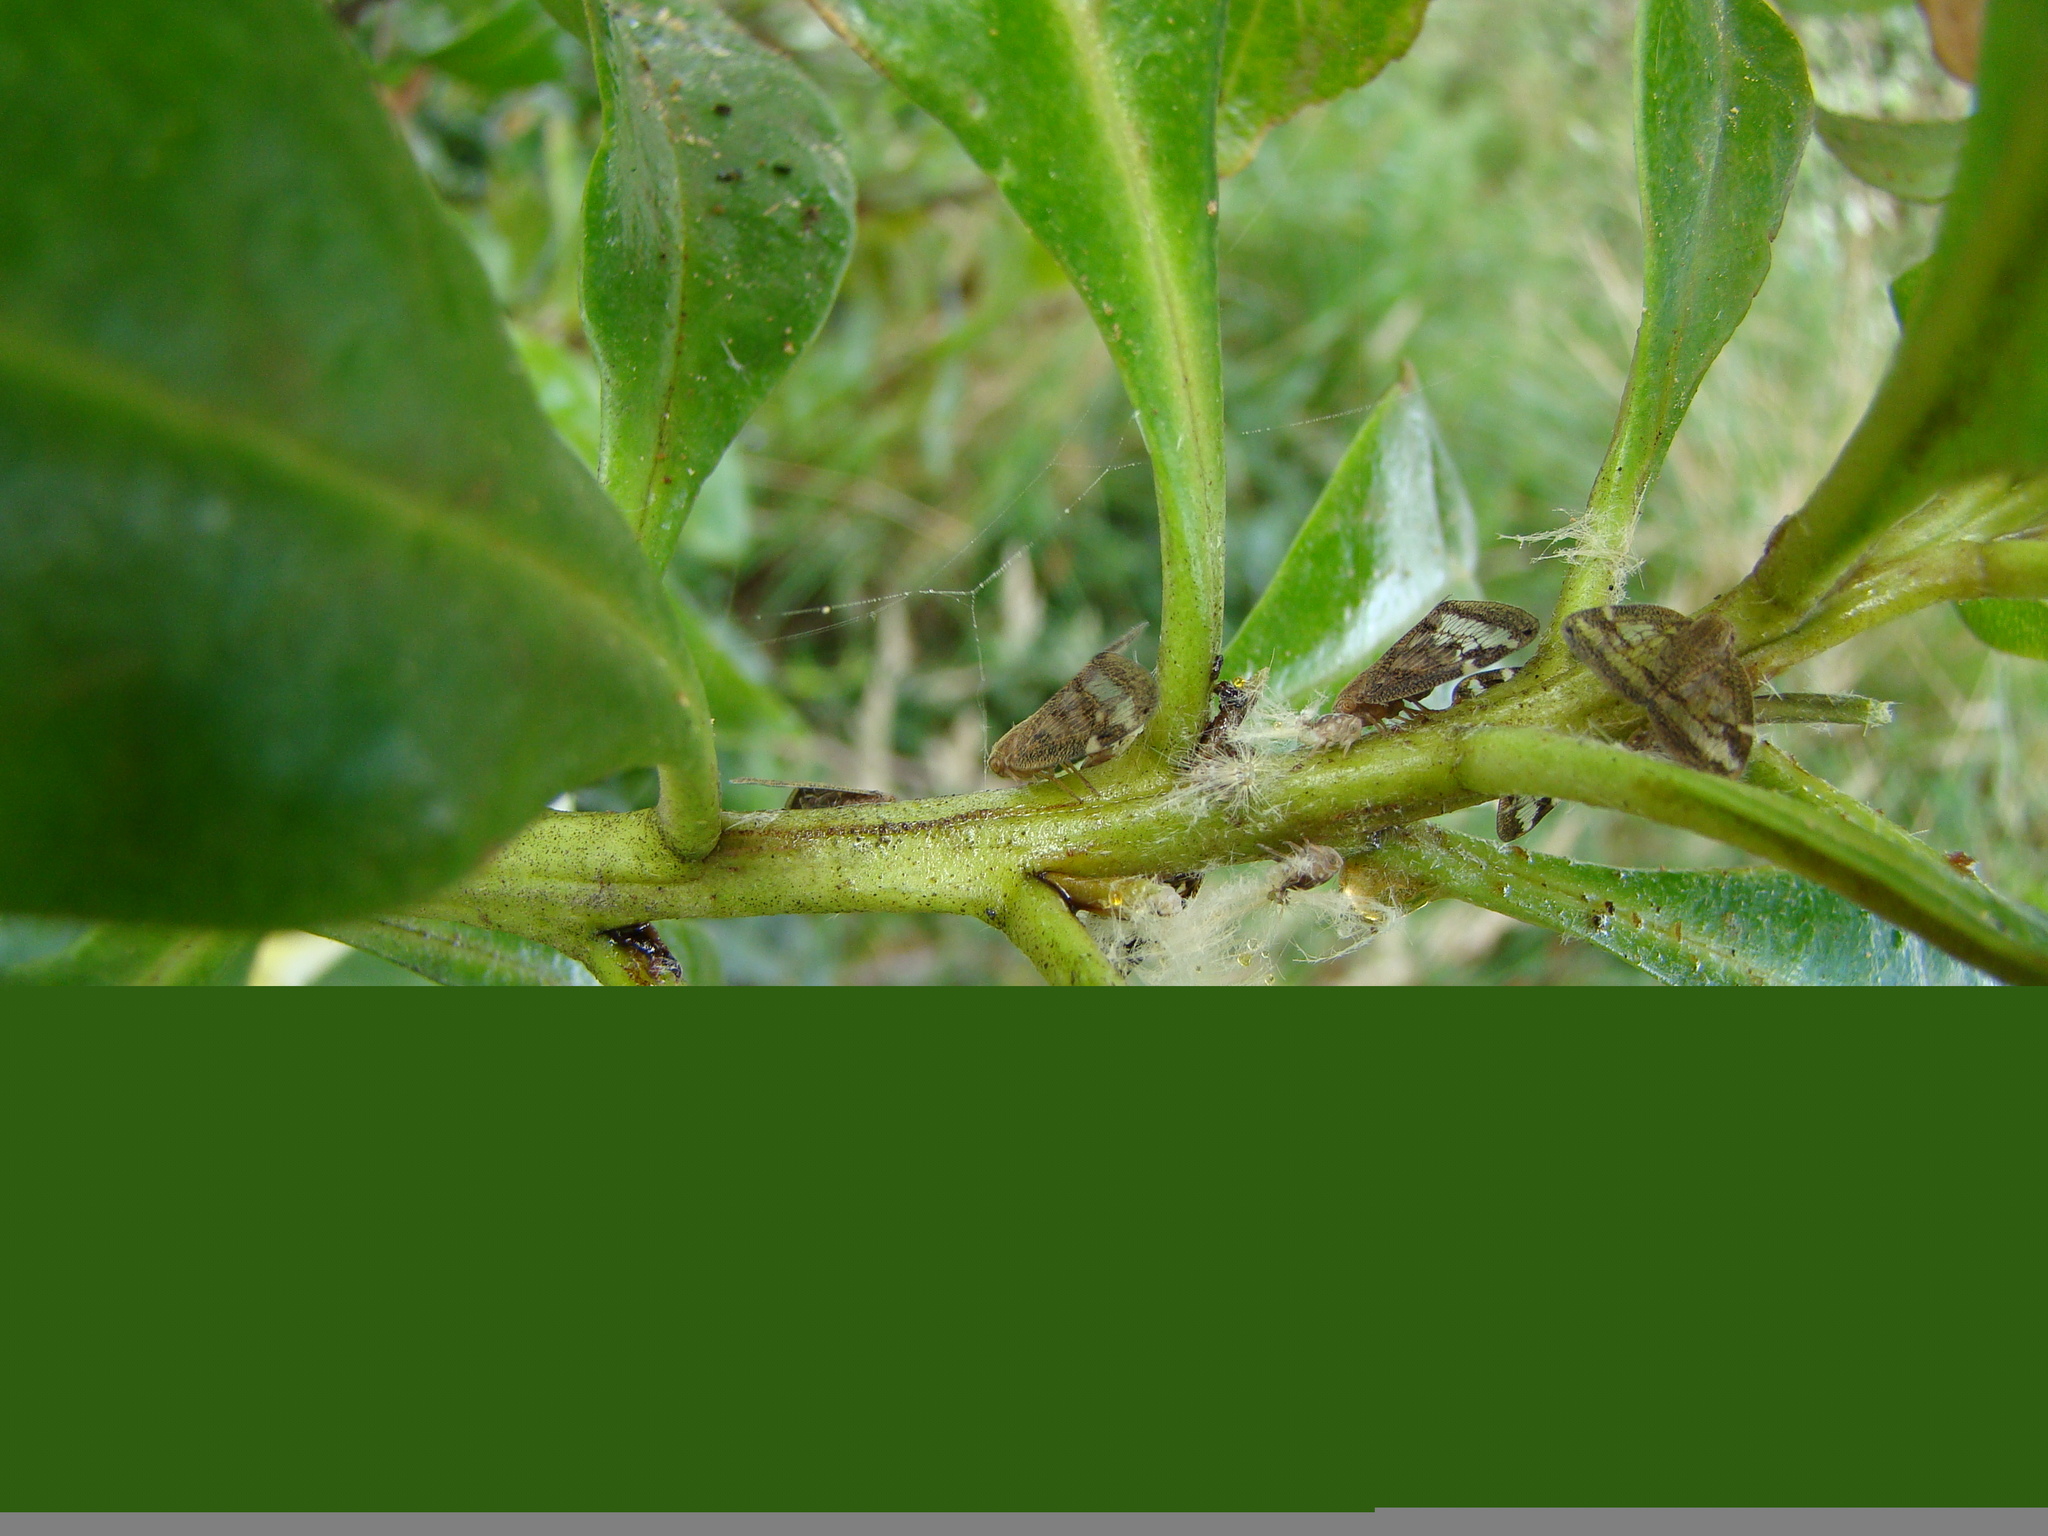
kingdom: Animalia
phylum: Arthropoda
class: Insecta
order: Hemiptera
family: Ricaniidae
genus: Scolypopa
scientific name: Scolypopa australis
